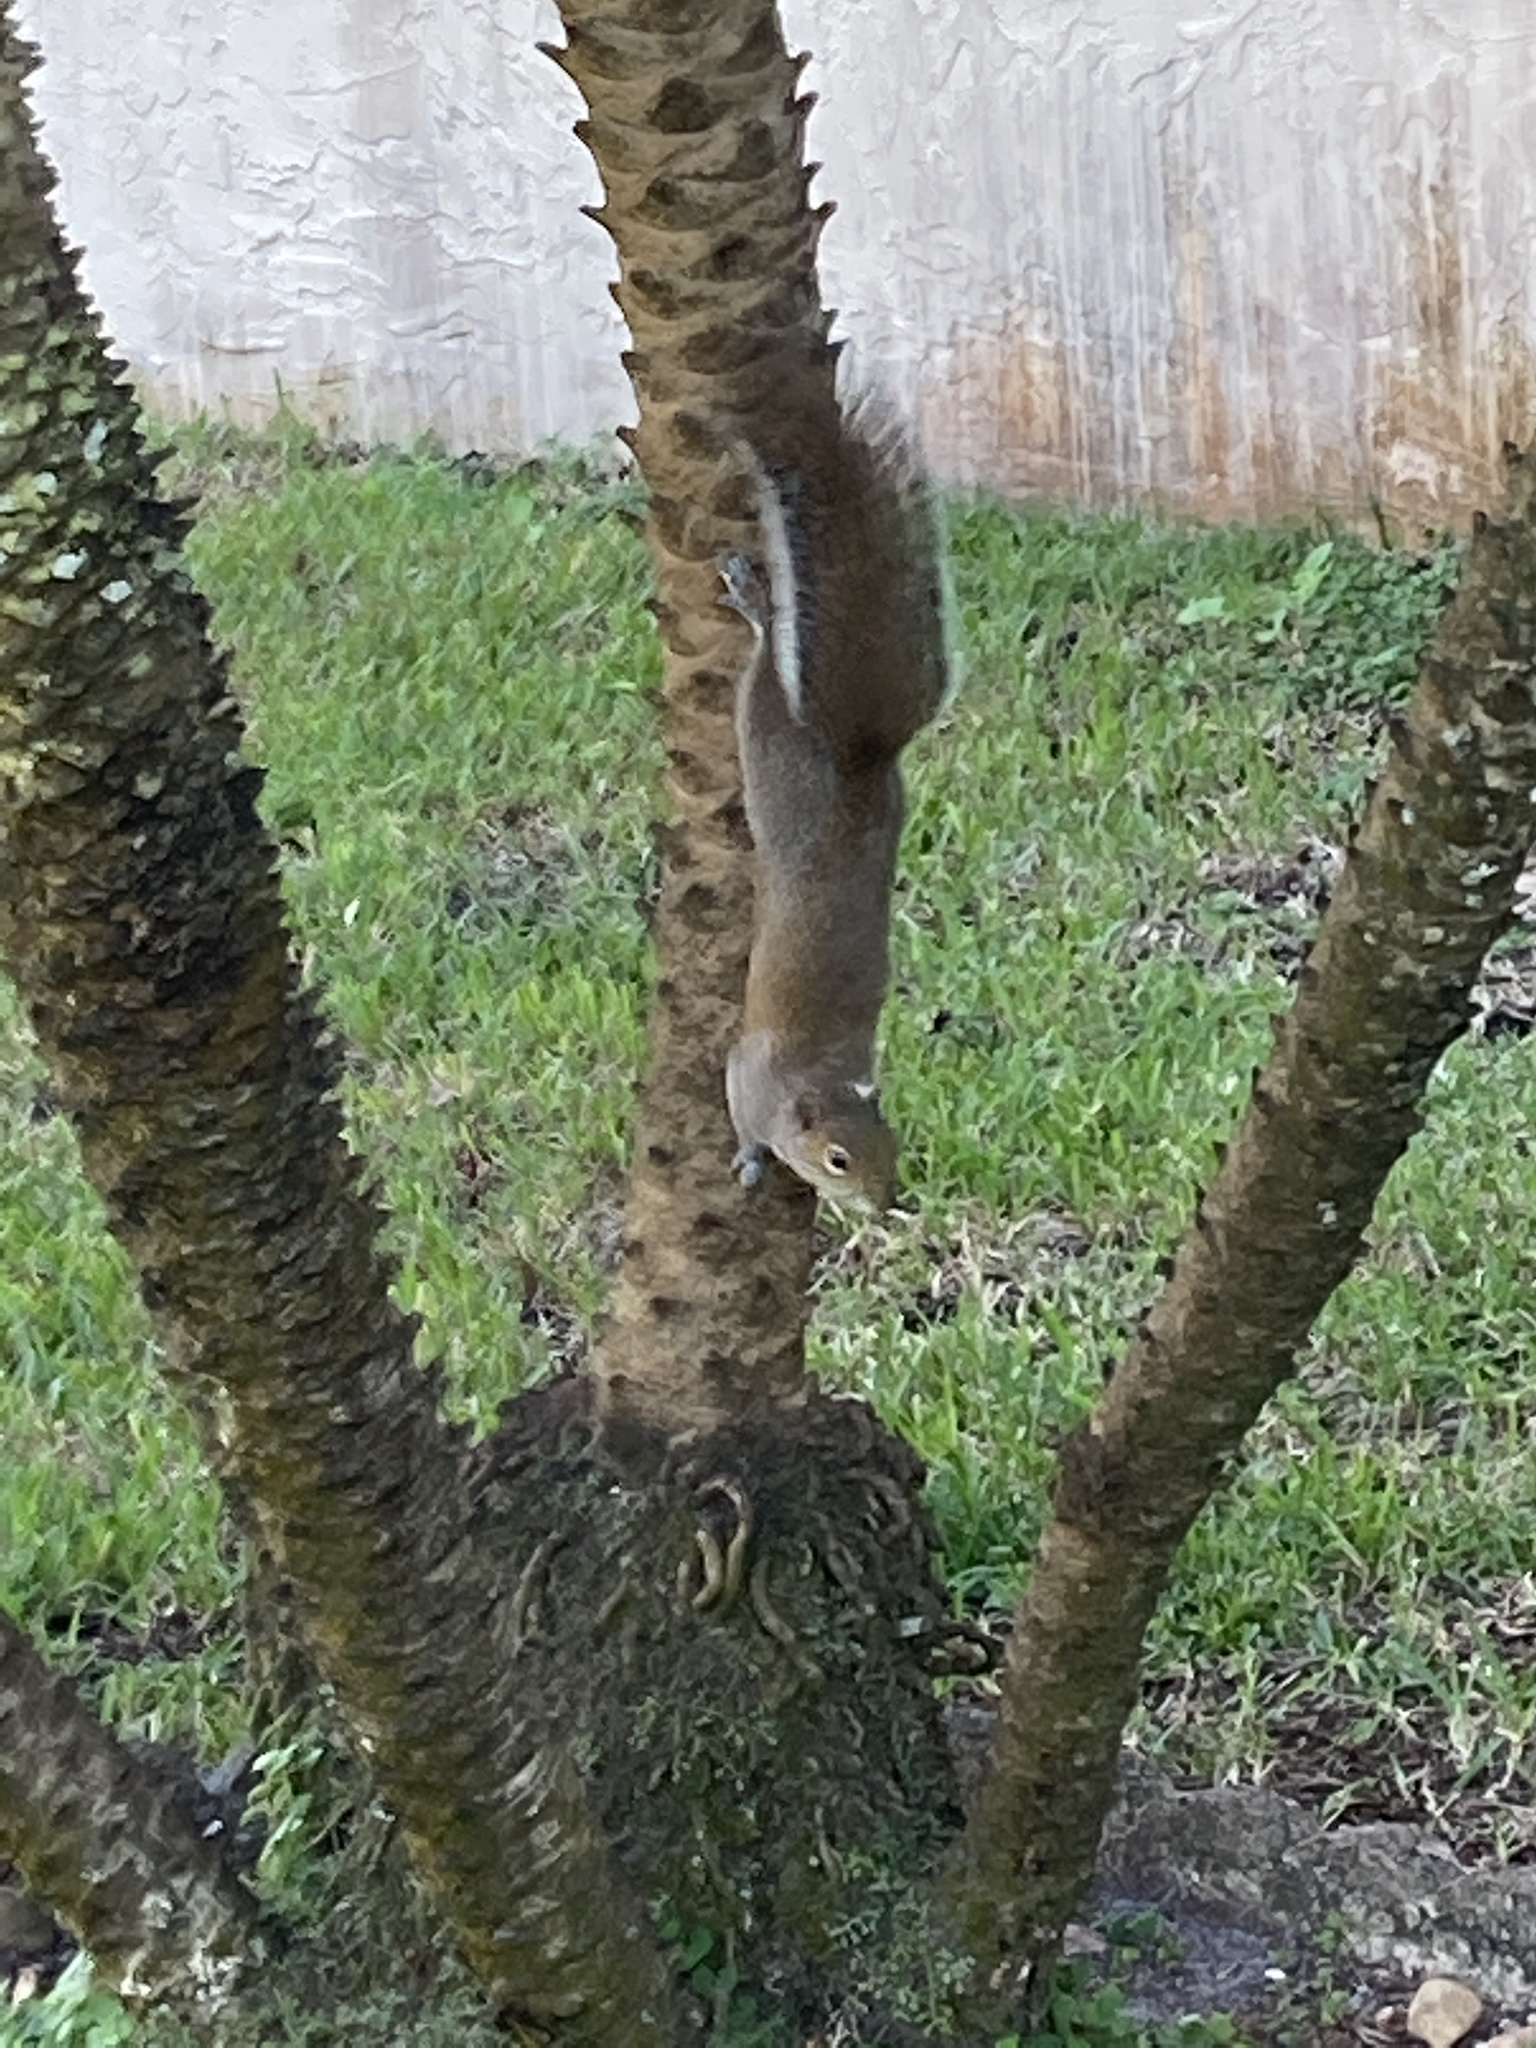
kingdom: Animalia
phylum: Chordata
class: Mammalia
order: Rodentia
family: Sciuridae
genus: Sciurus
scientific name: Sciurus carolinensis
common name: Eastern gray squirrel
